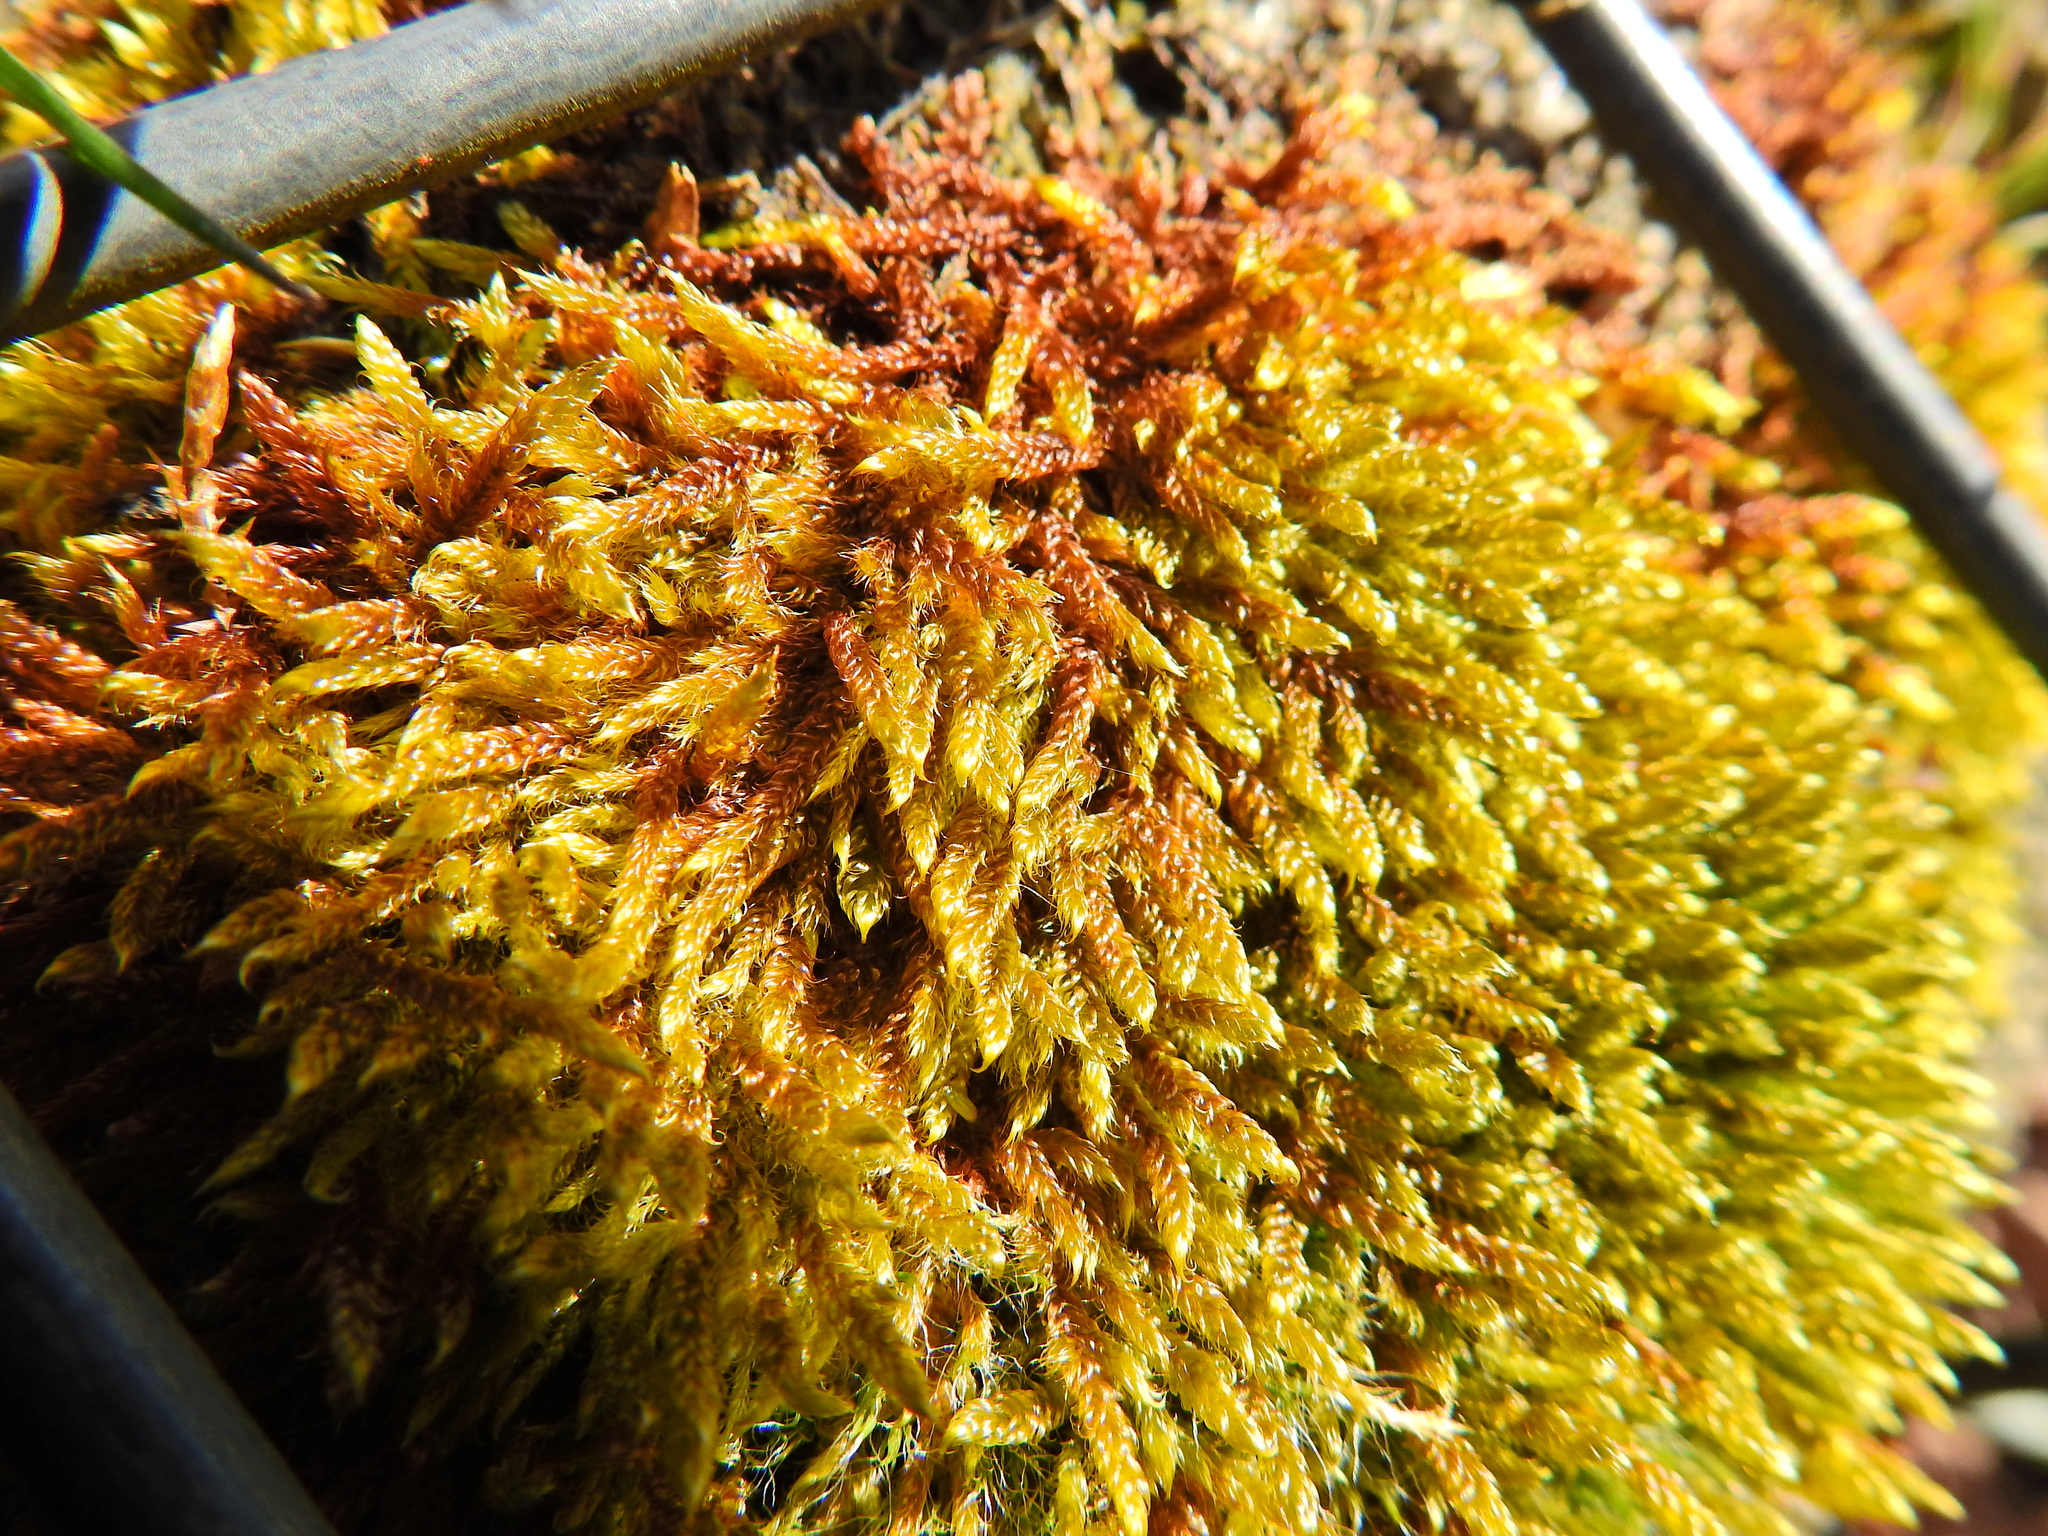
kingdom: Plantae
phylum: Bryophyta
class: Bryopsida
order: Hypnales
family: Hypnaceae
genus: Hypnum
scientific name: Hypnum cupressiforme
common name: Cypress-leaved plait-moss
